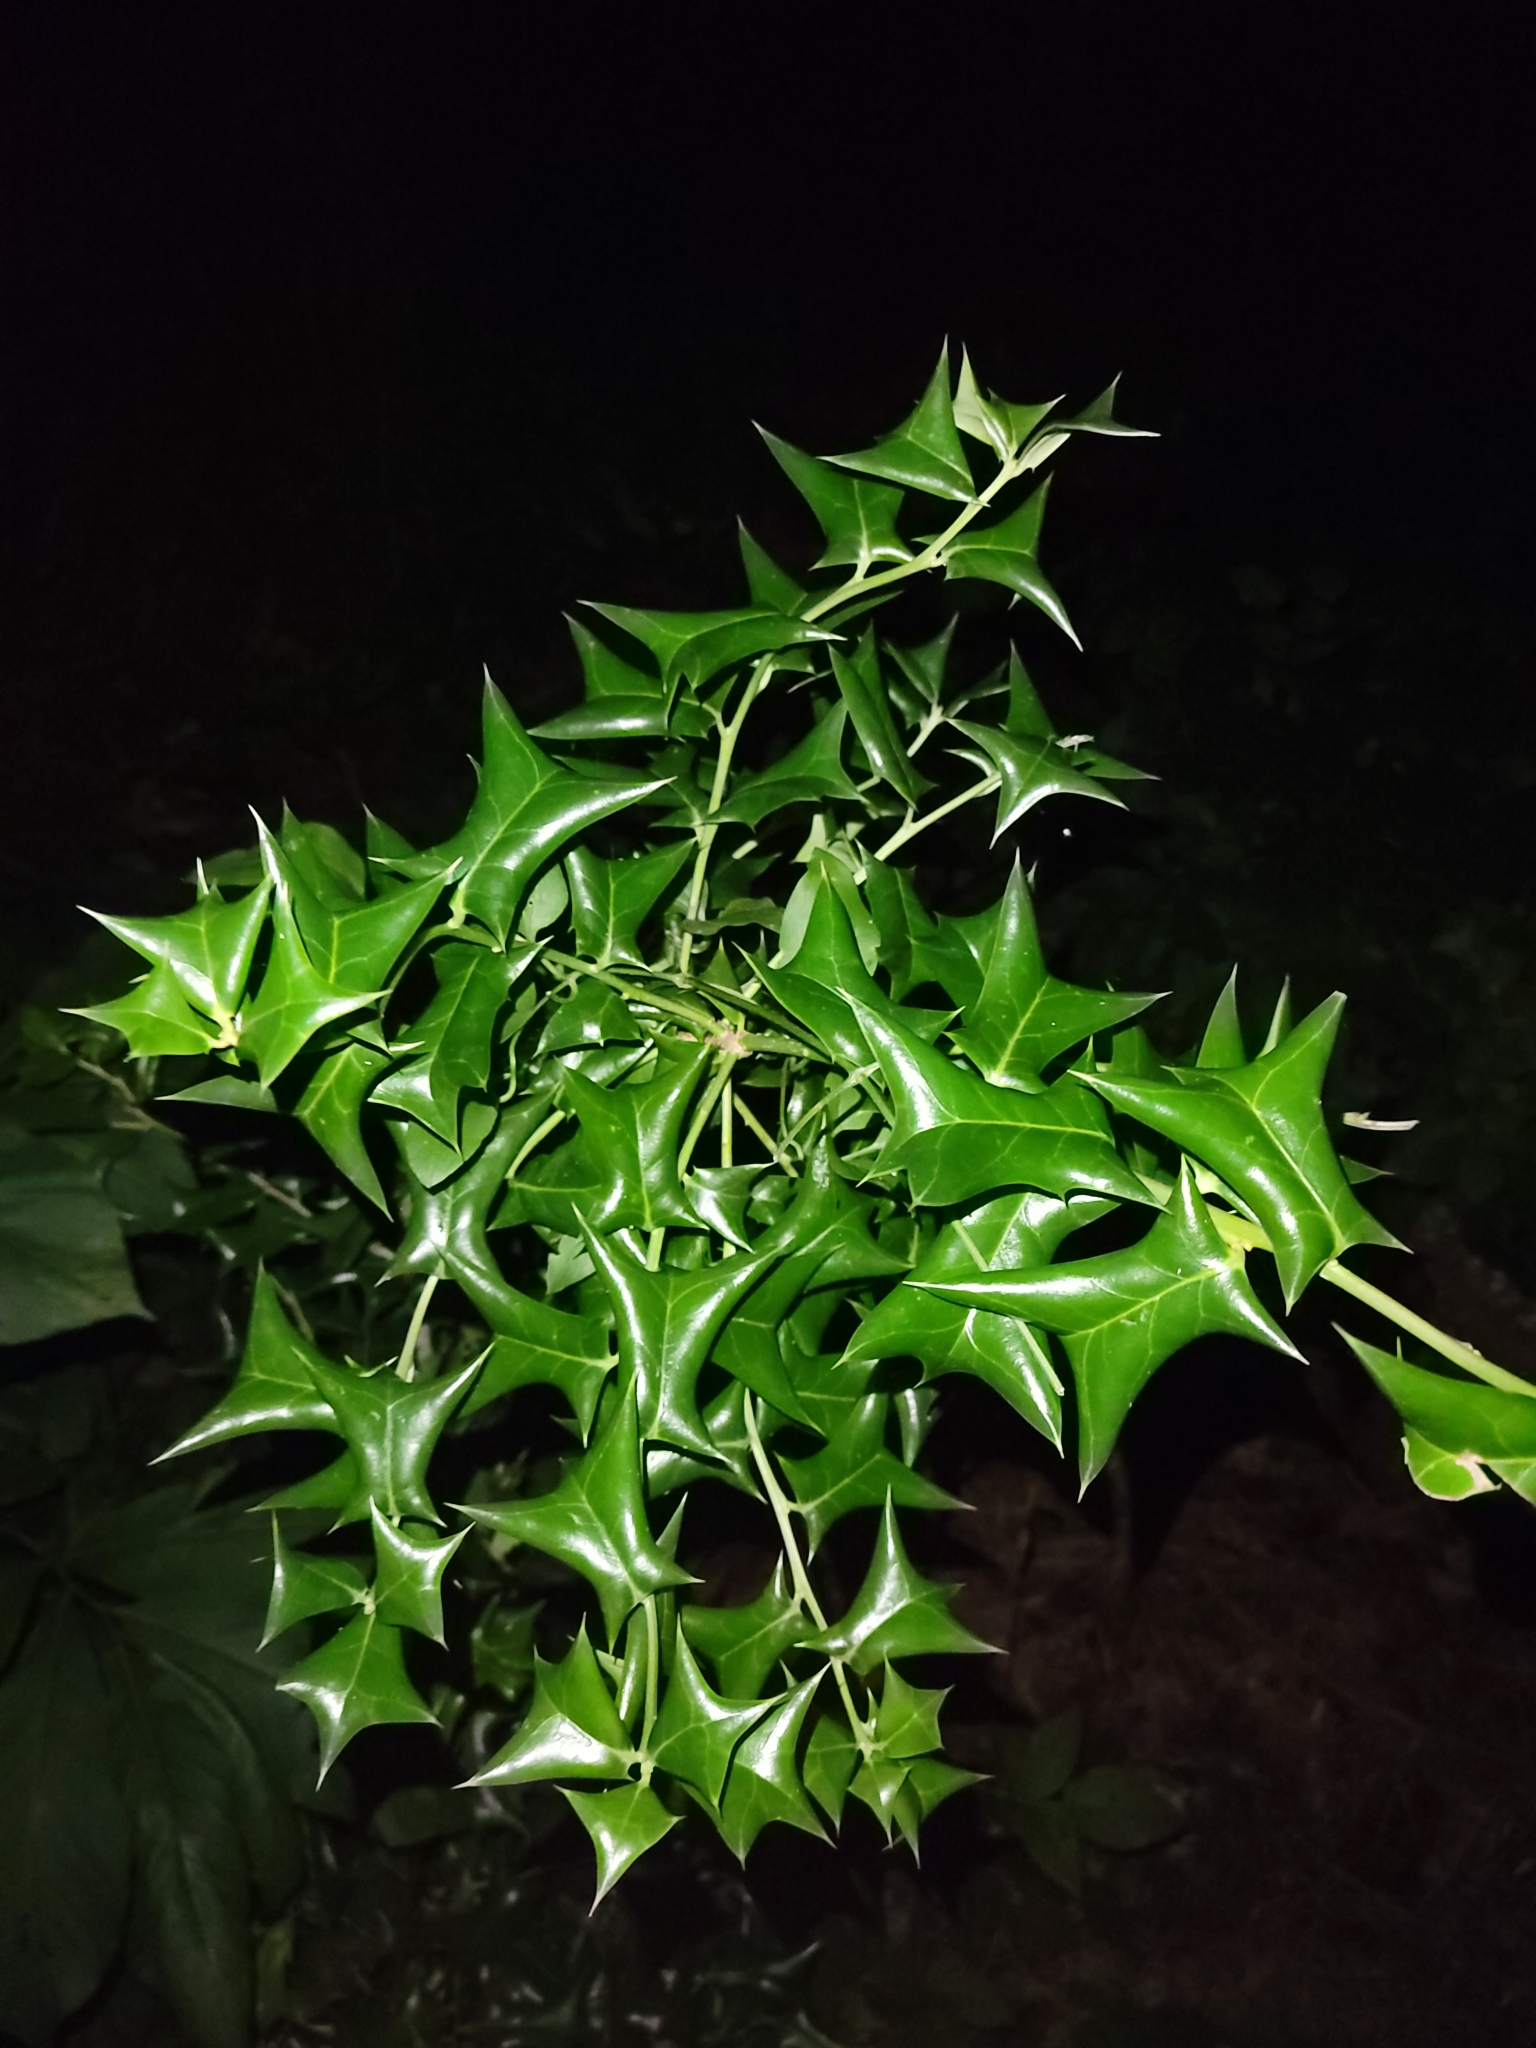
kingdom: Plantae
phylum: Tracheophyta
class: Magnoliopsida
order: Aquifoliales
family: Aquifoliaceae
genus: Ilex
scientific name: Ilex cornuta
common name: Chinese holly
